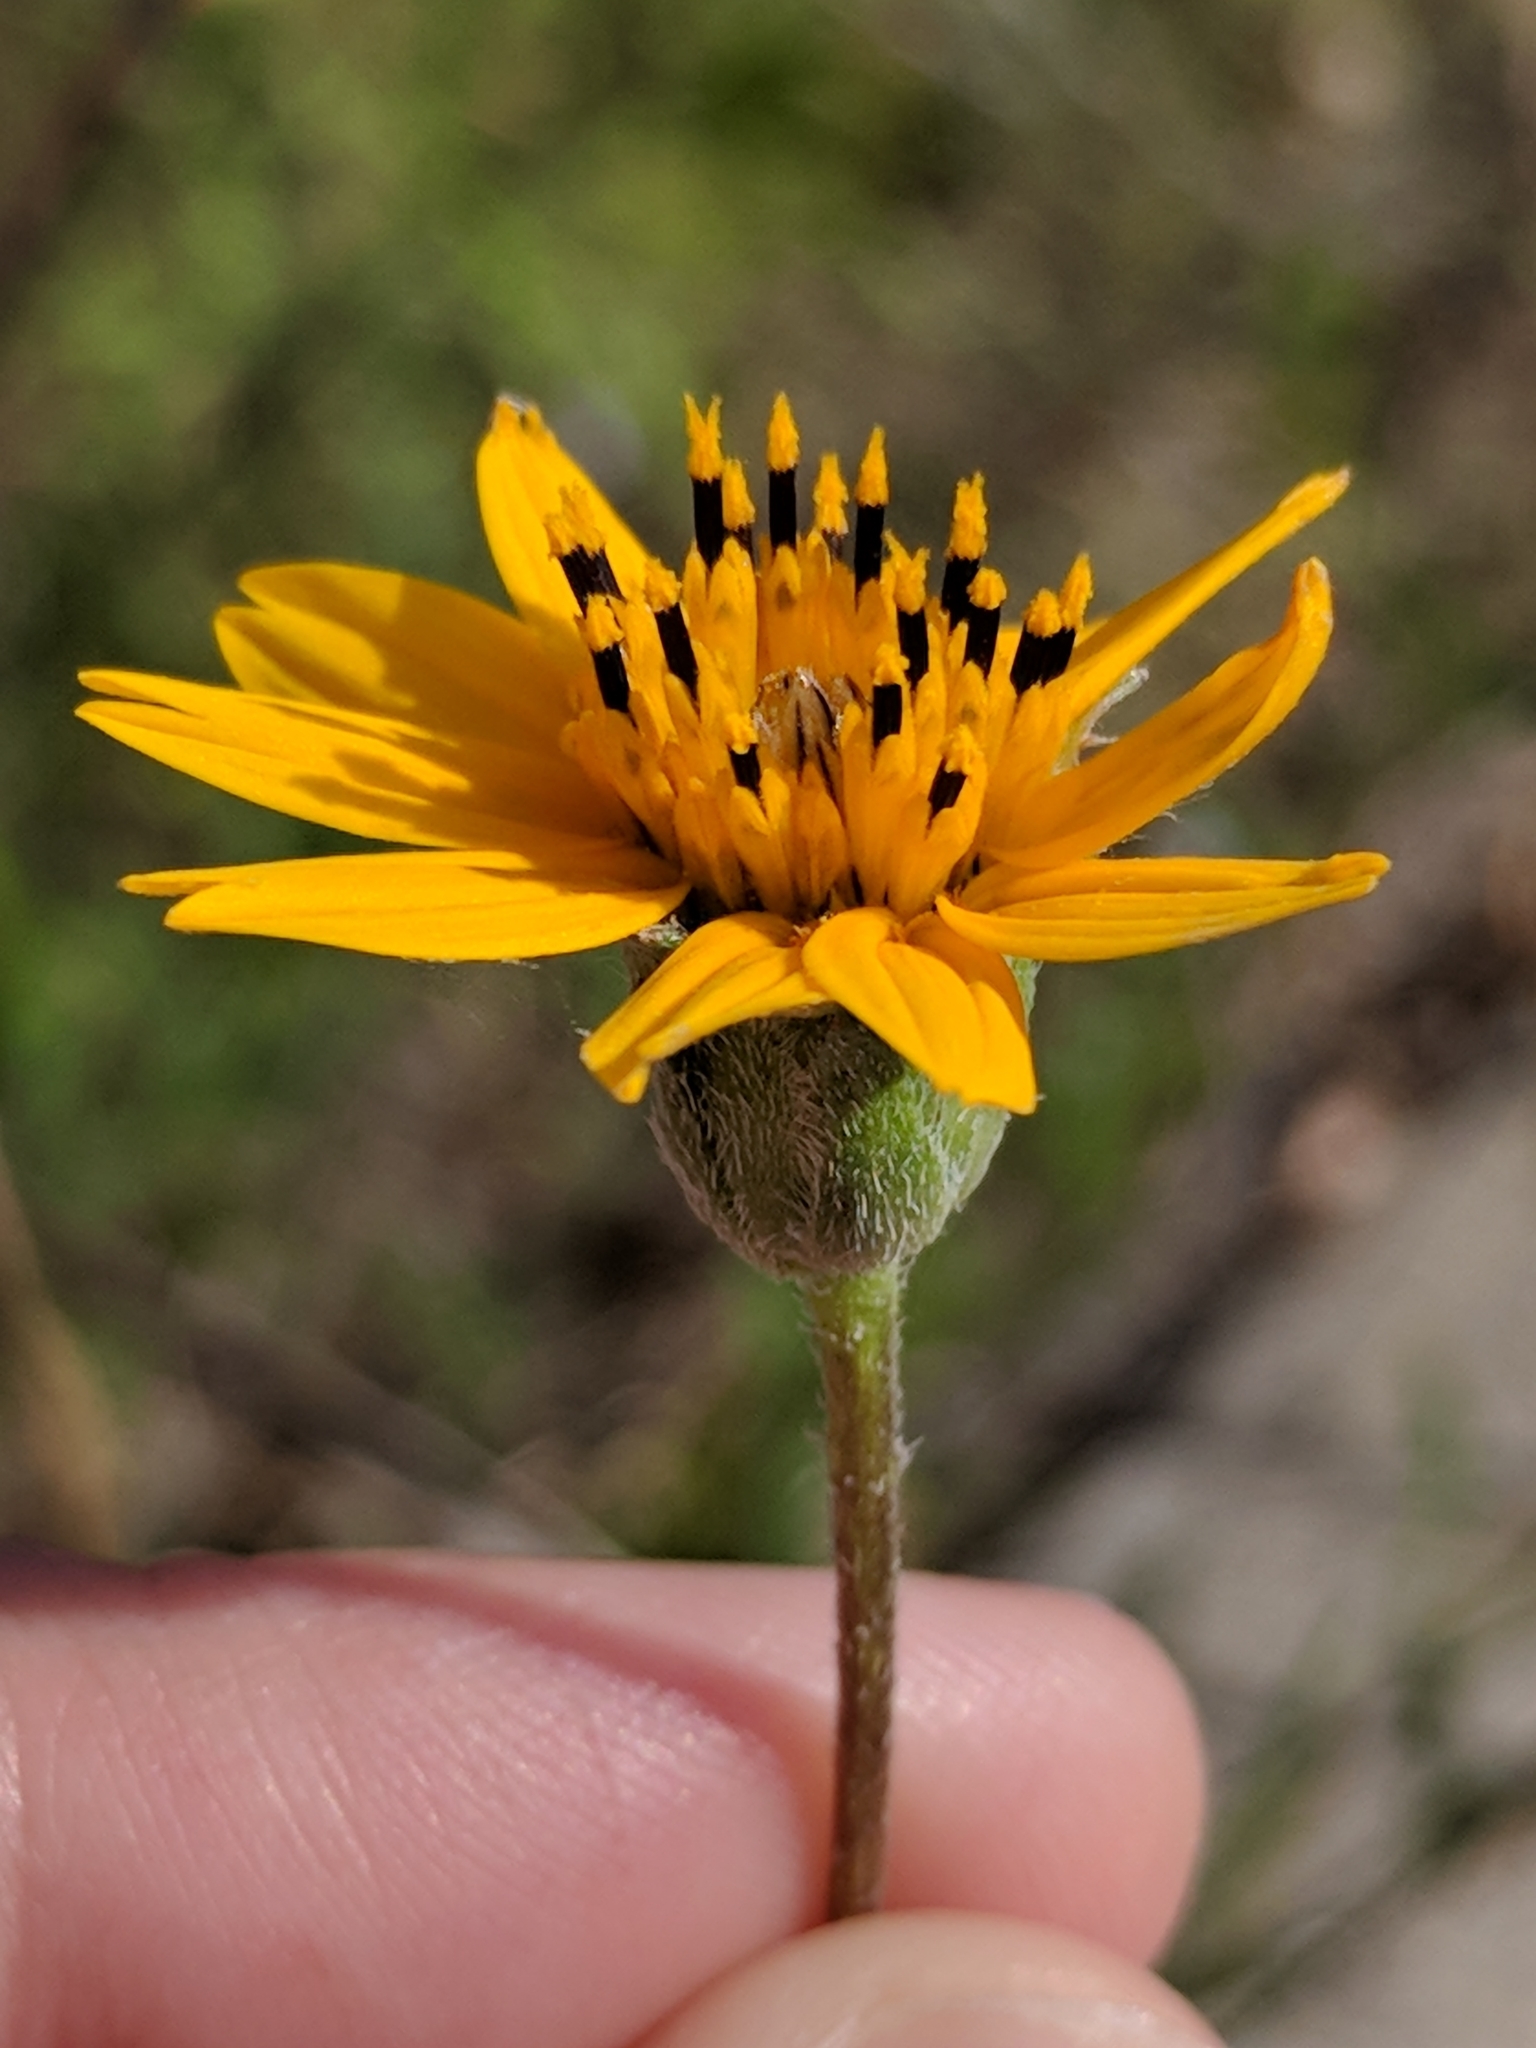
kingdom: Plantae
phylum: Tracheophyta
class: Magnoliopsida
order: Asterales
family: Asteraceae
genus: Wedelia
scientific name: Wedelia acapulcensis
